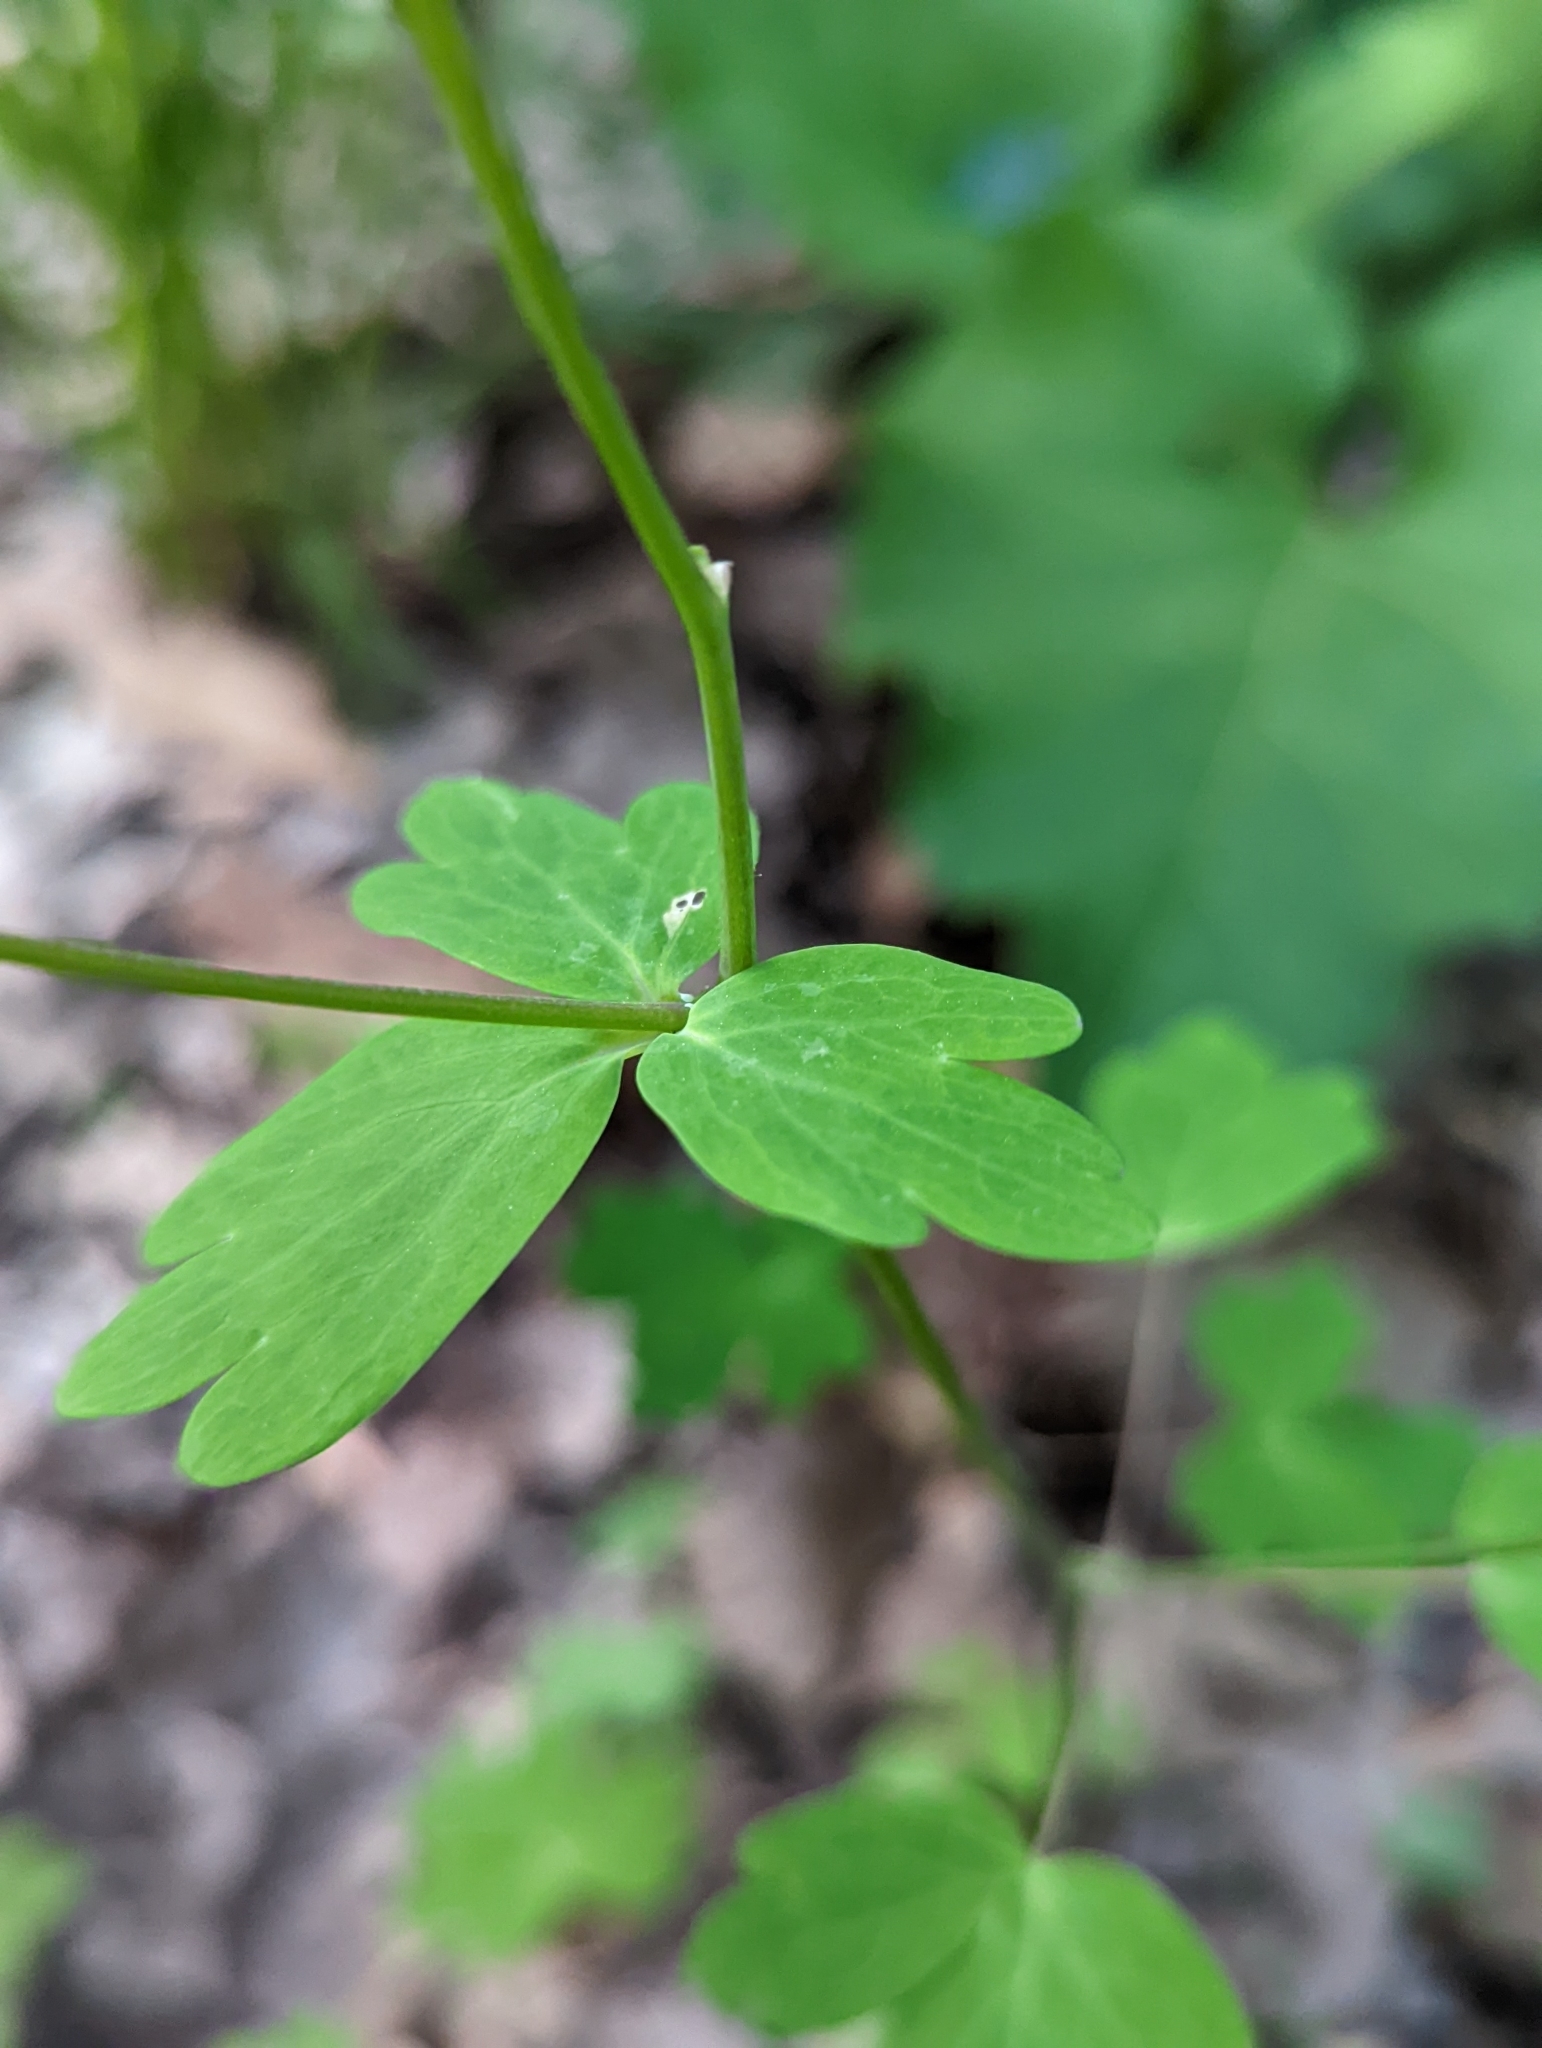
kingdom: Plantae
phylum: Tracheophyta
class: Magnoliopsida
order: Ranunculales
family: Ranunculaceae
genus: Aquilegia
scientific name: Aquilegia canadensis
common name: American columbine
